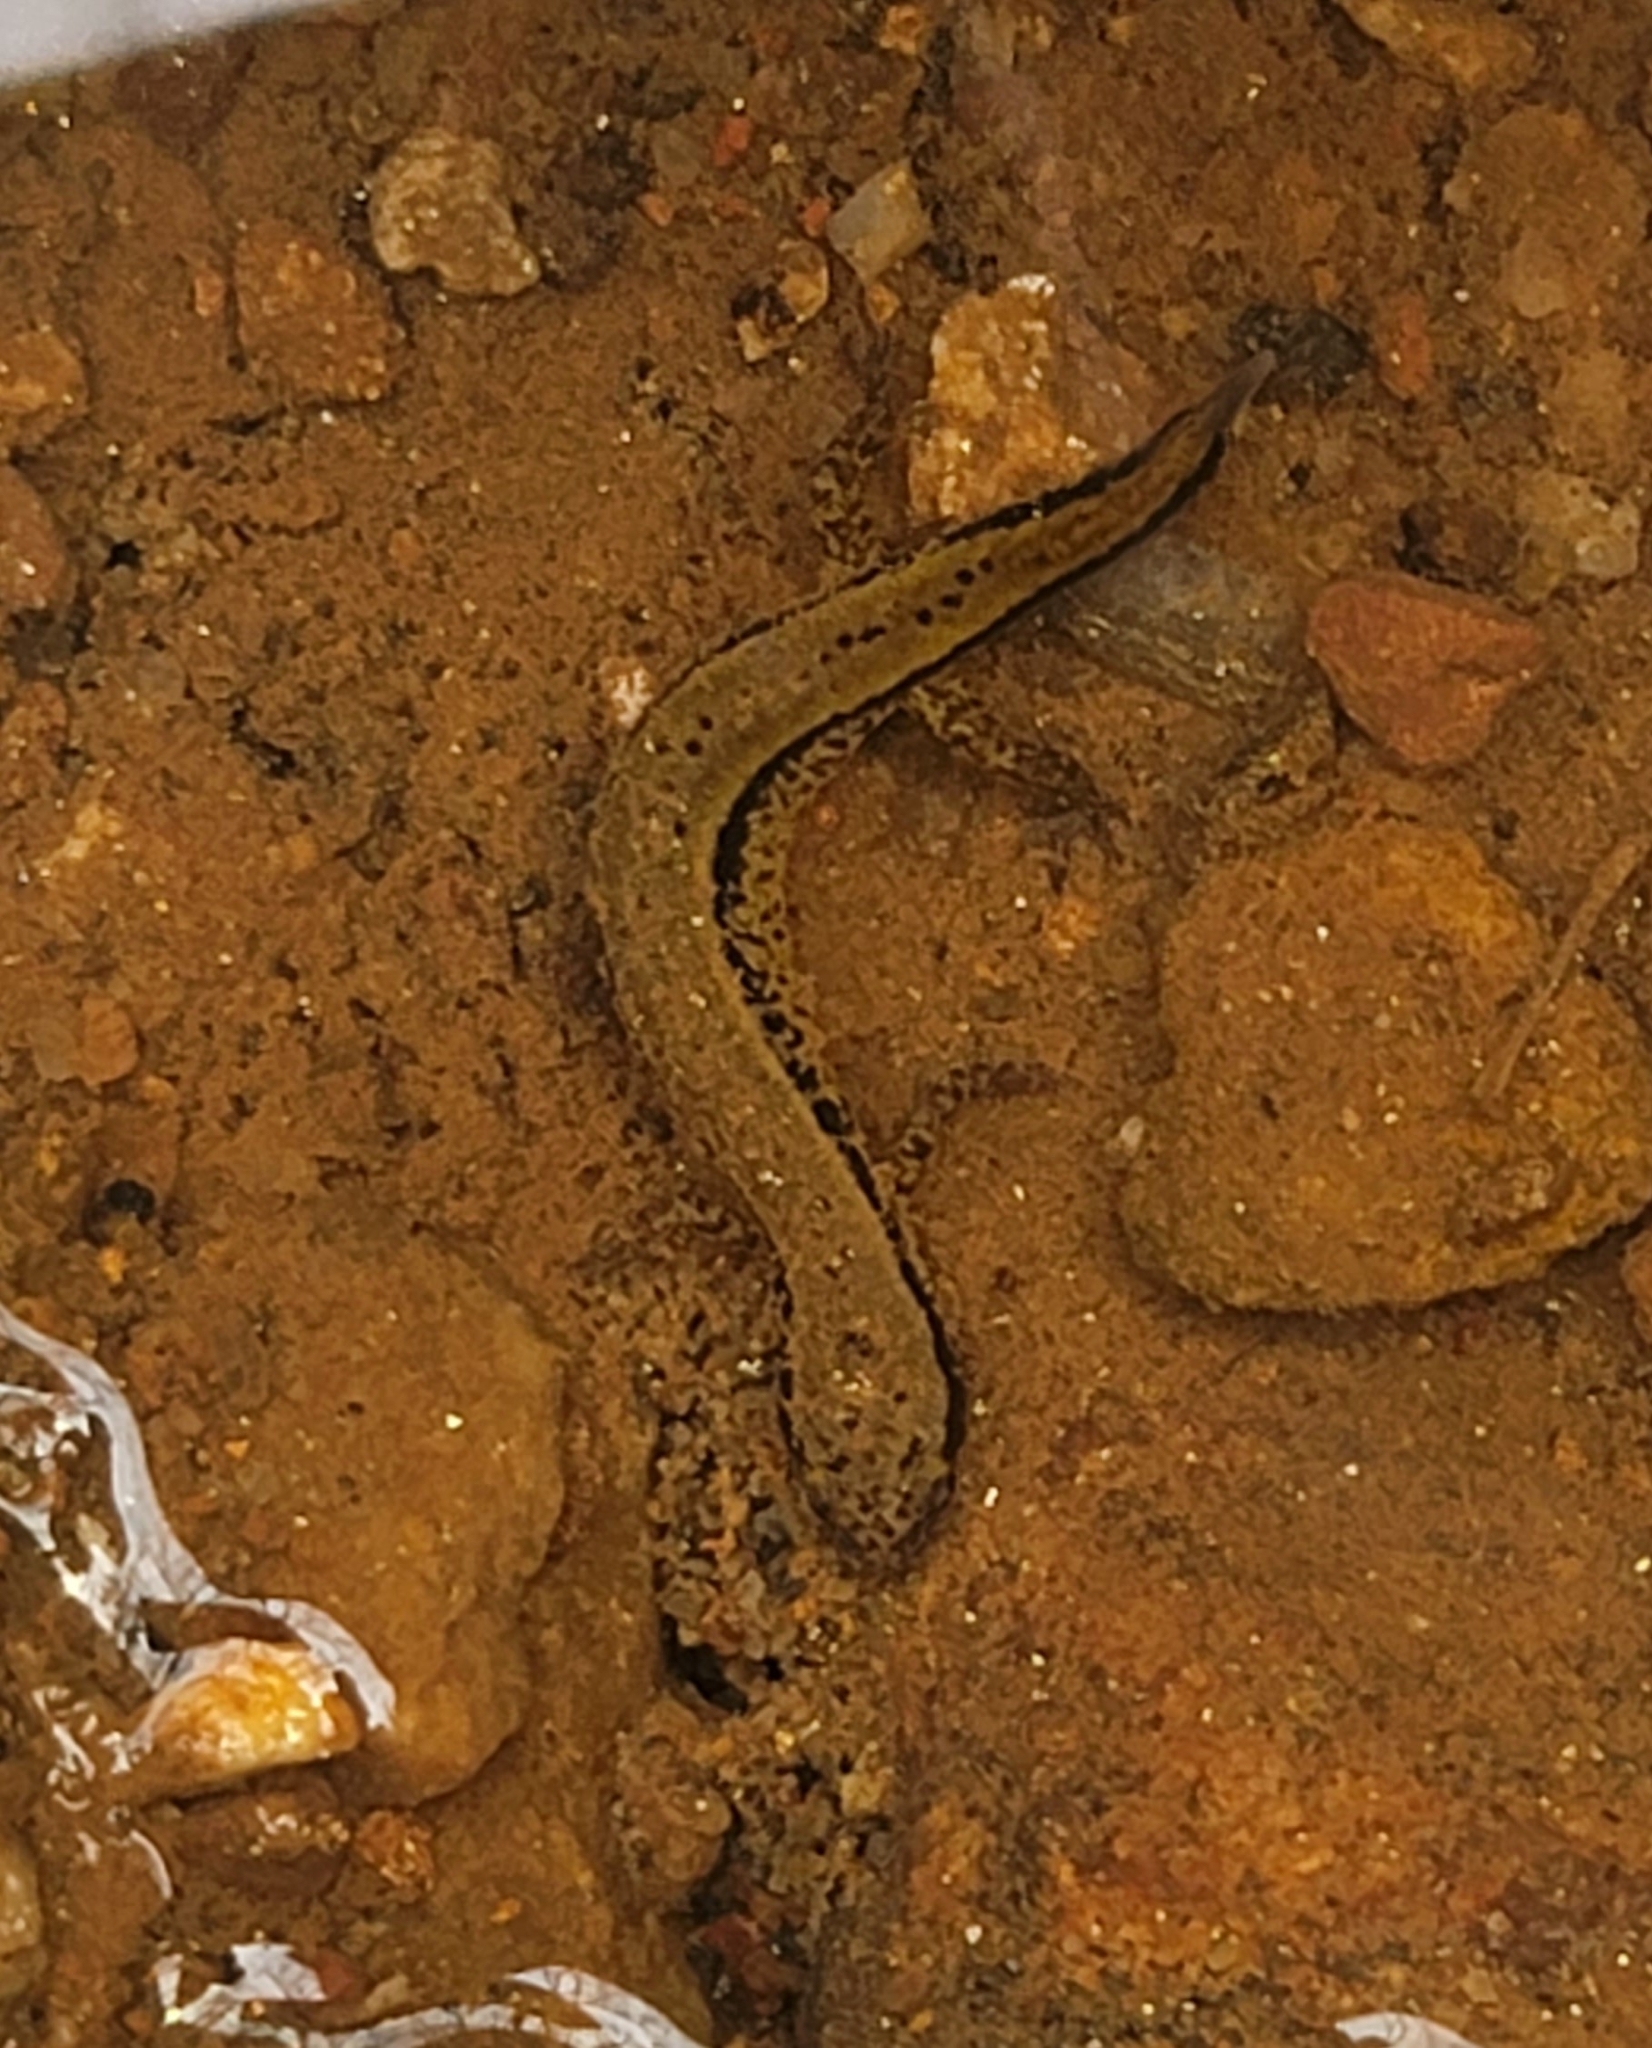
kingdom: Animalia
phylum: Chordata
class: Amphibia
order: Caudata
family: Plethodontidae
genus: Eurycea
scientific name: Eurycea cirrigera
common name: Southern two-lined salamander
